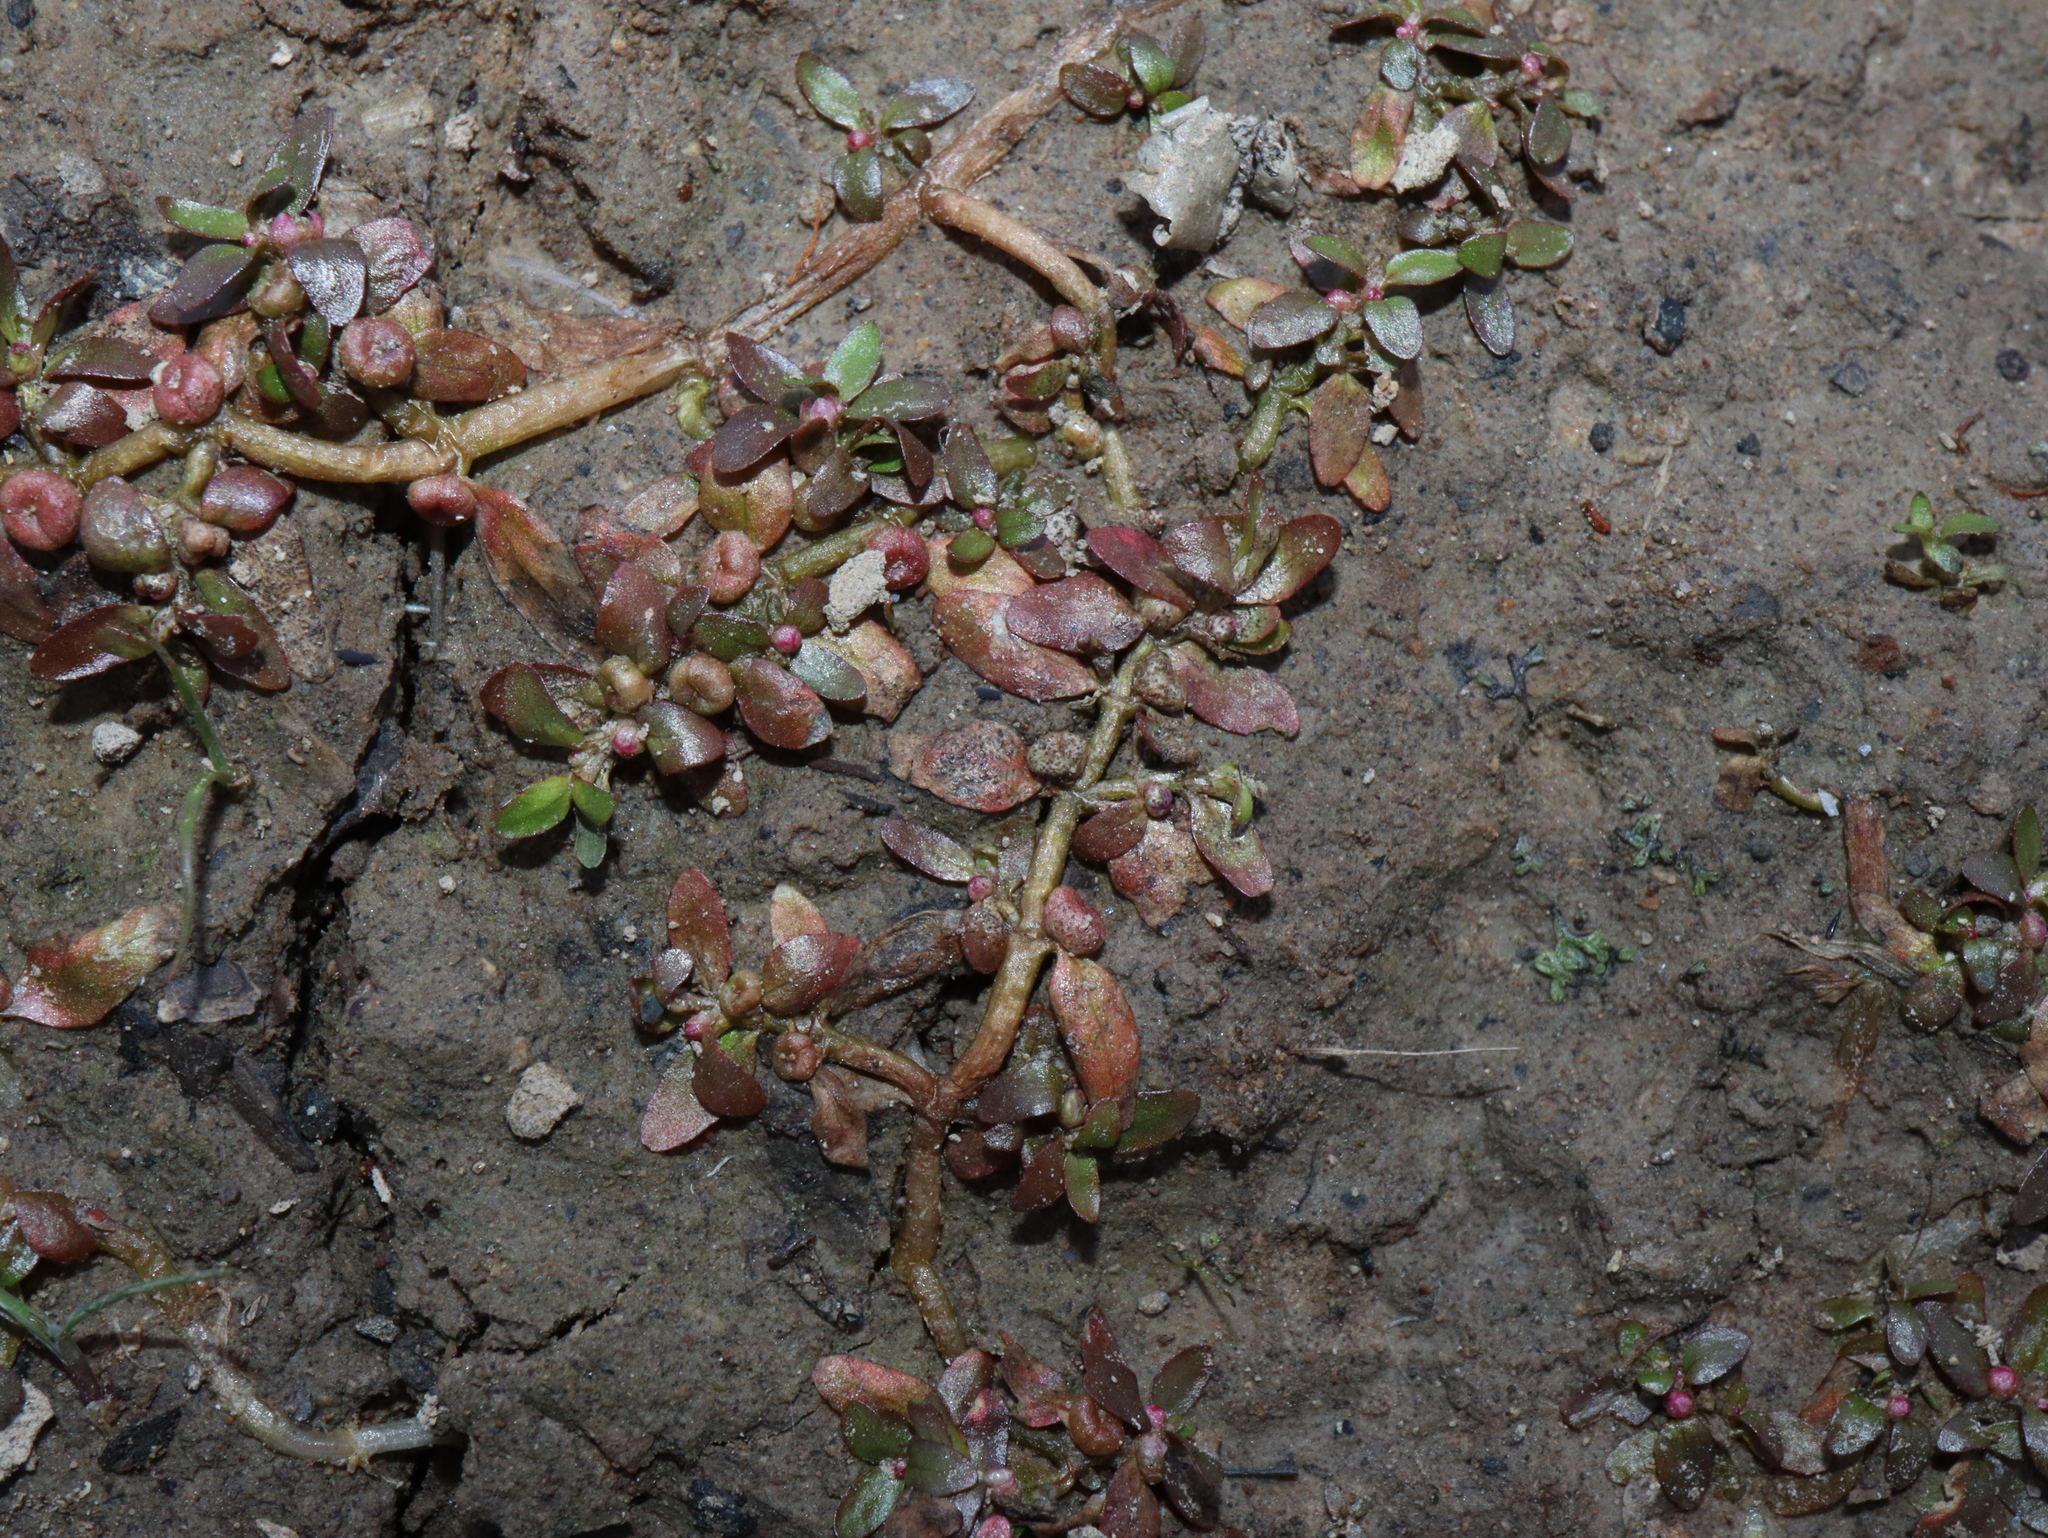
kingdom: Plantae
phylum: Tracheophyta
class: Magnoliopsida
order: Malpighiales
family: Elatinaceae
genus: Elatine
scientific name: Elatine gratioloides
